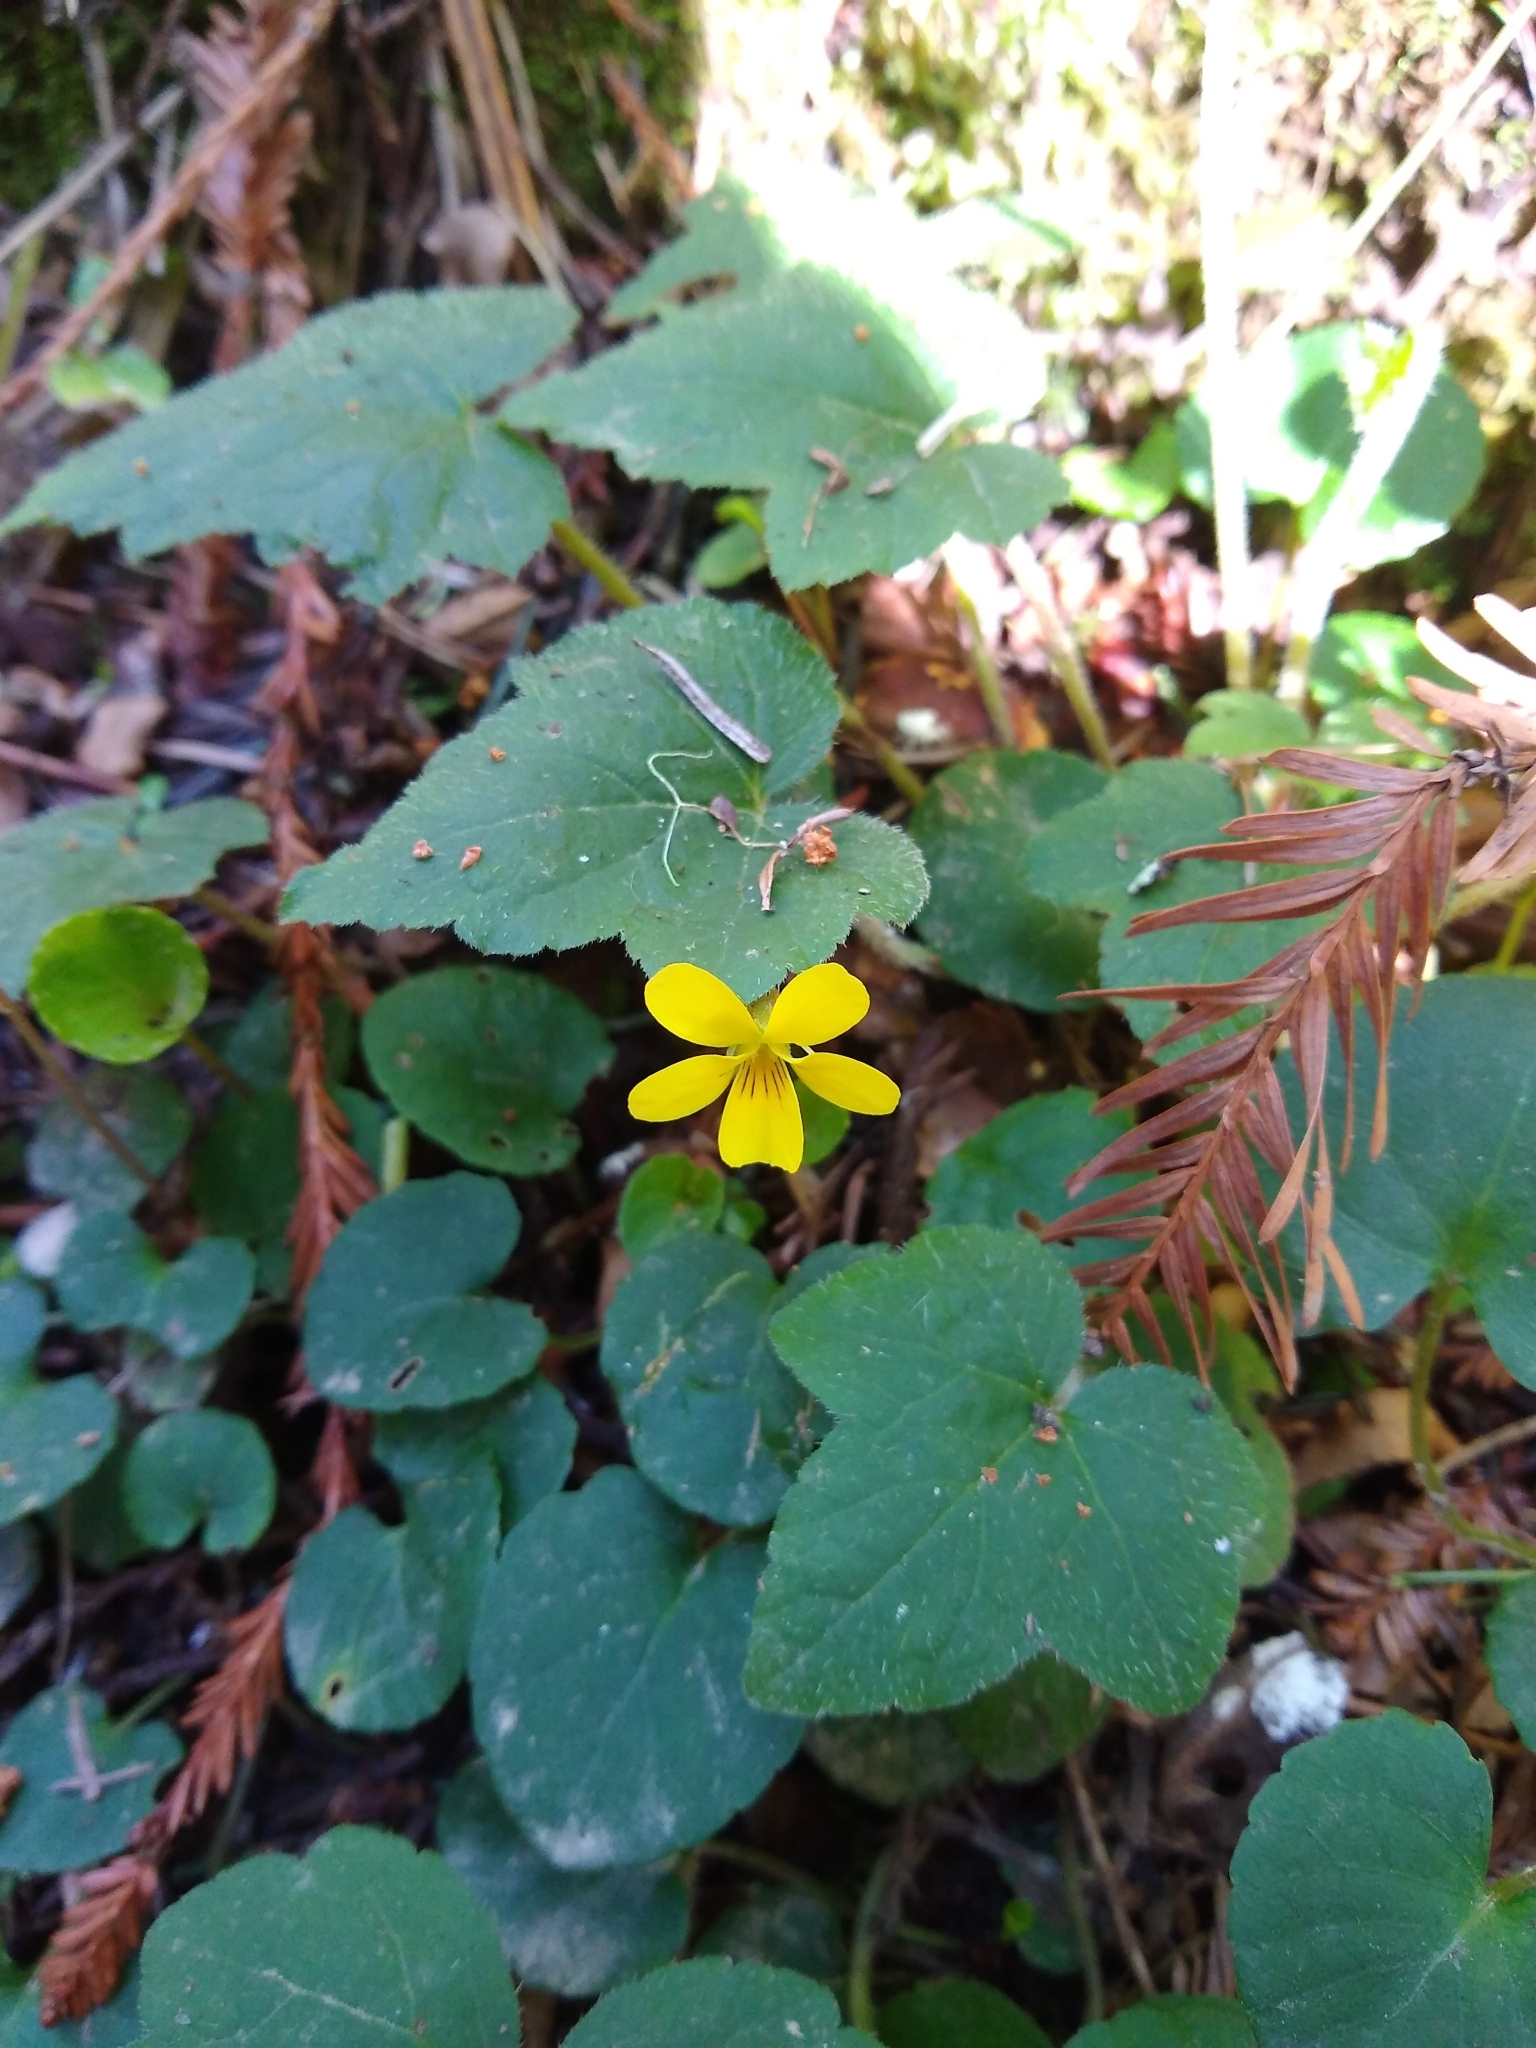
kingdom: Plantae
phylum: Tracheophyta
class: Magnoliopsida
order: Malpighiales
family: Violaceae
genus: Viola
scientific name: Viola sempervirens
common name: Evergreen violet
